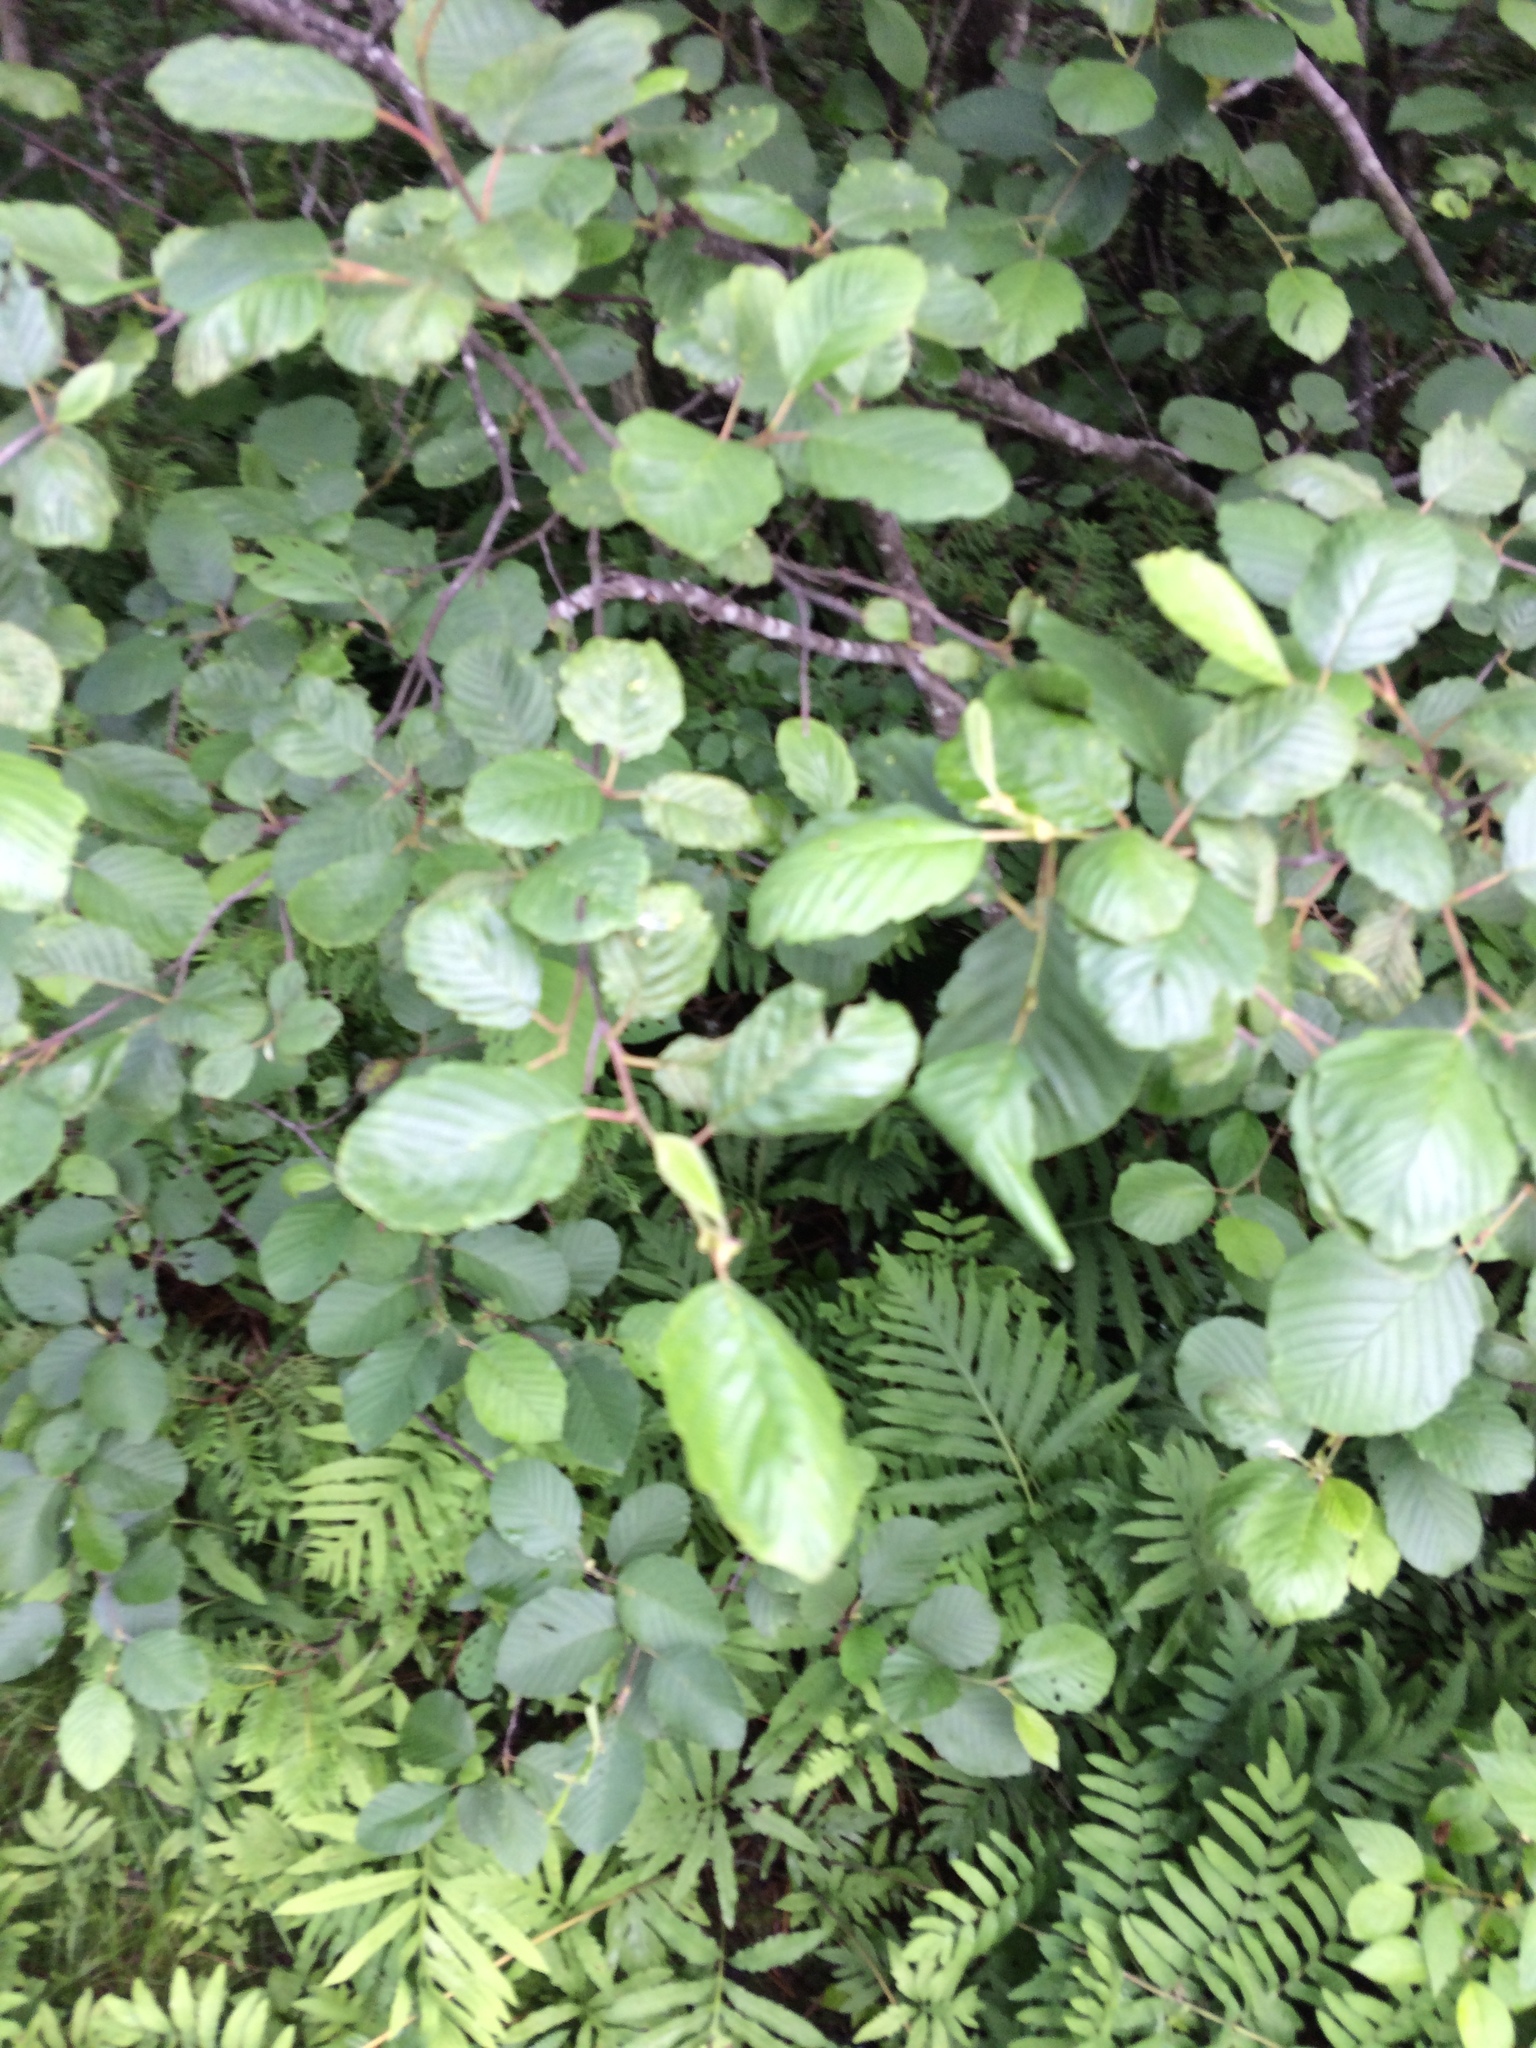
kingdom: Plantae
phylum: Tracheophyta
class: Magnoliopsida
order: Fagales
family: Betulaceae
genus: Alnus
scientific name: Alnus incana
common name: Grey alder
